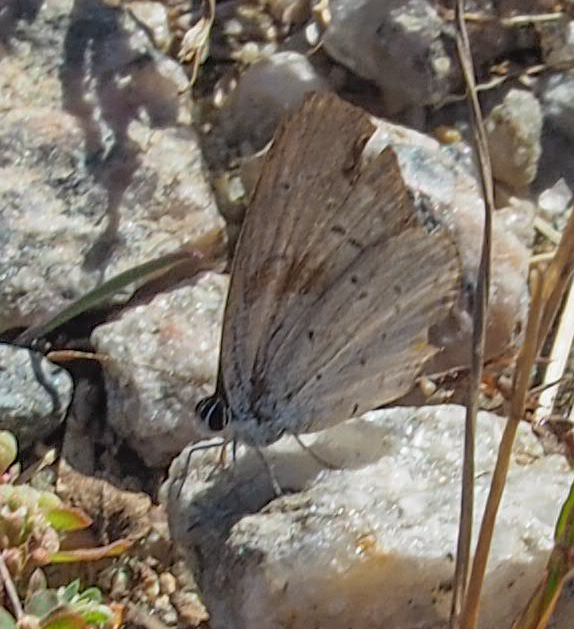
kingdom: Animalia
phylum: Arthropoda
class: Insecta
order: Lepidoptera
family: Lycaenidae
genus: Elkalyce
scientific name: Elkalyce comyntas
